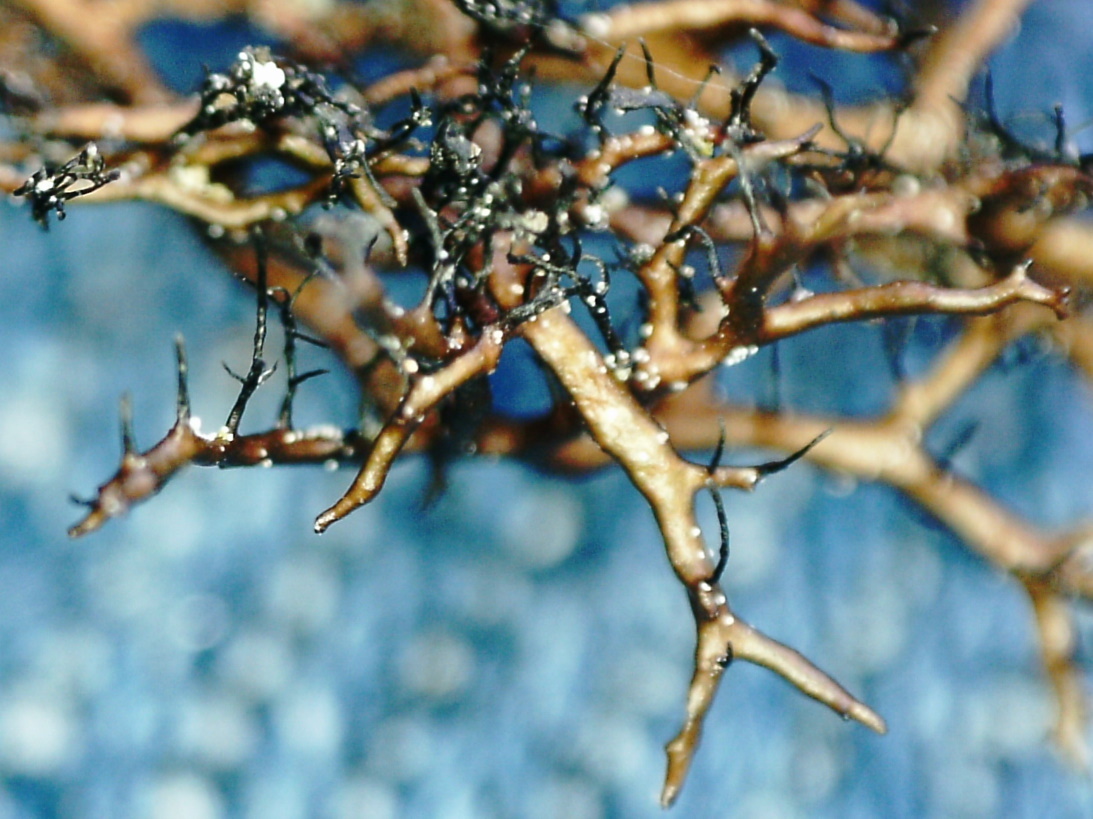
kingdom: Fungi
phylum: Ascomycota
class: Lecanoromycetes
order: Lecanorales
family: Parmeliaceae
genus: Cetraria
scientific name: Cetraria muricata
